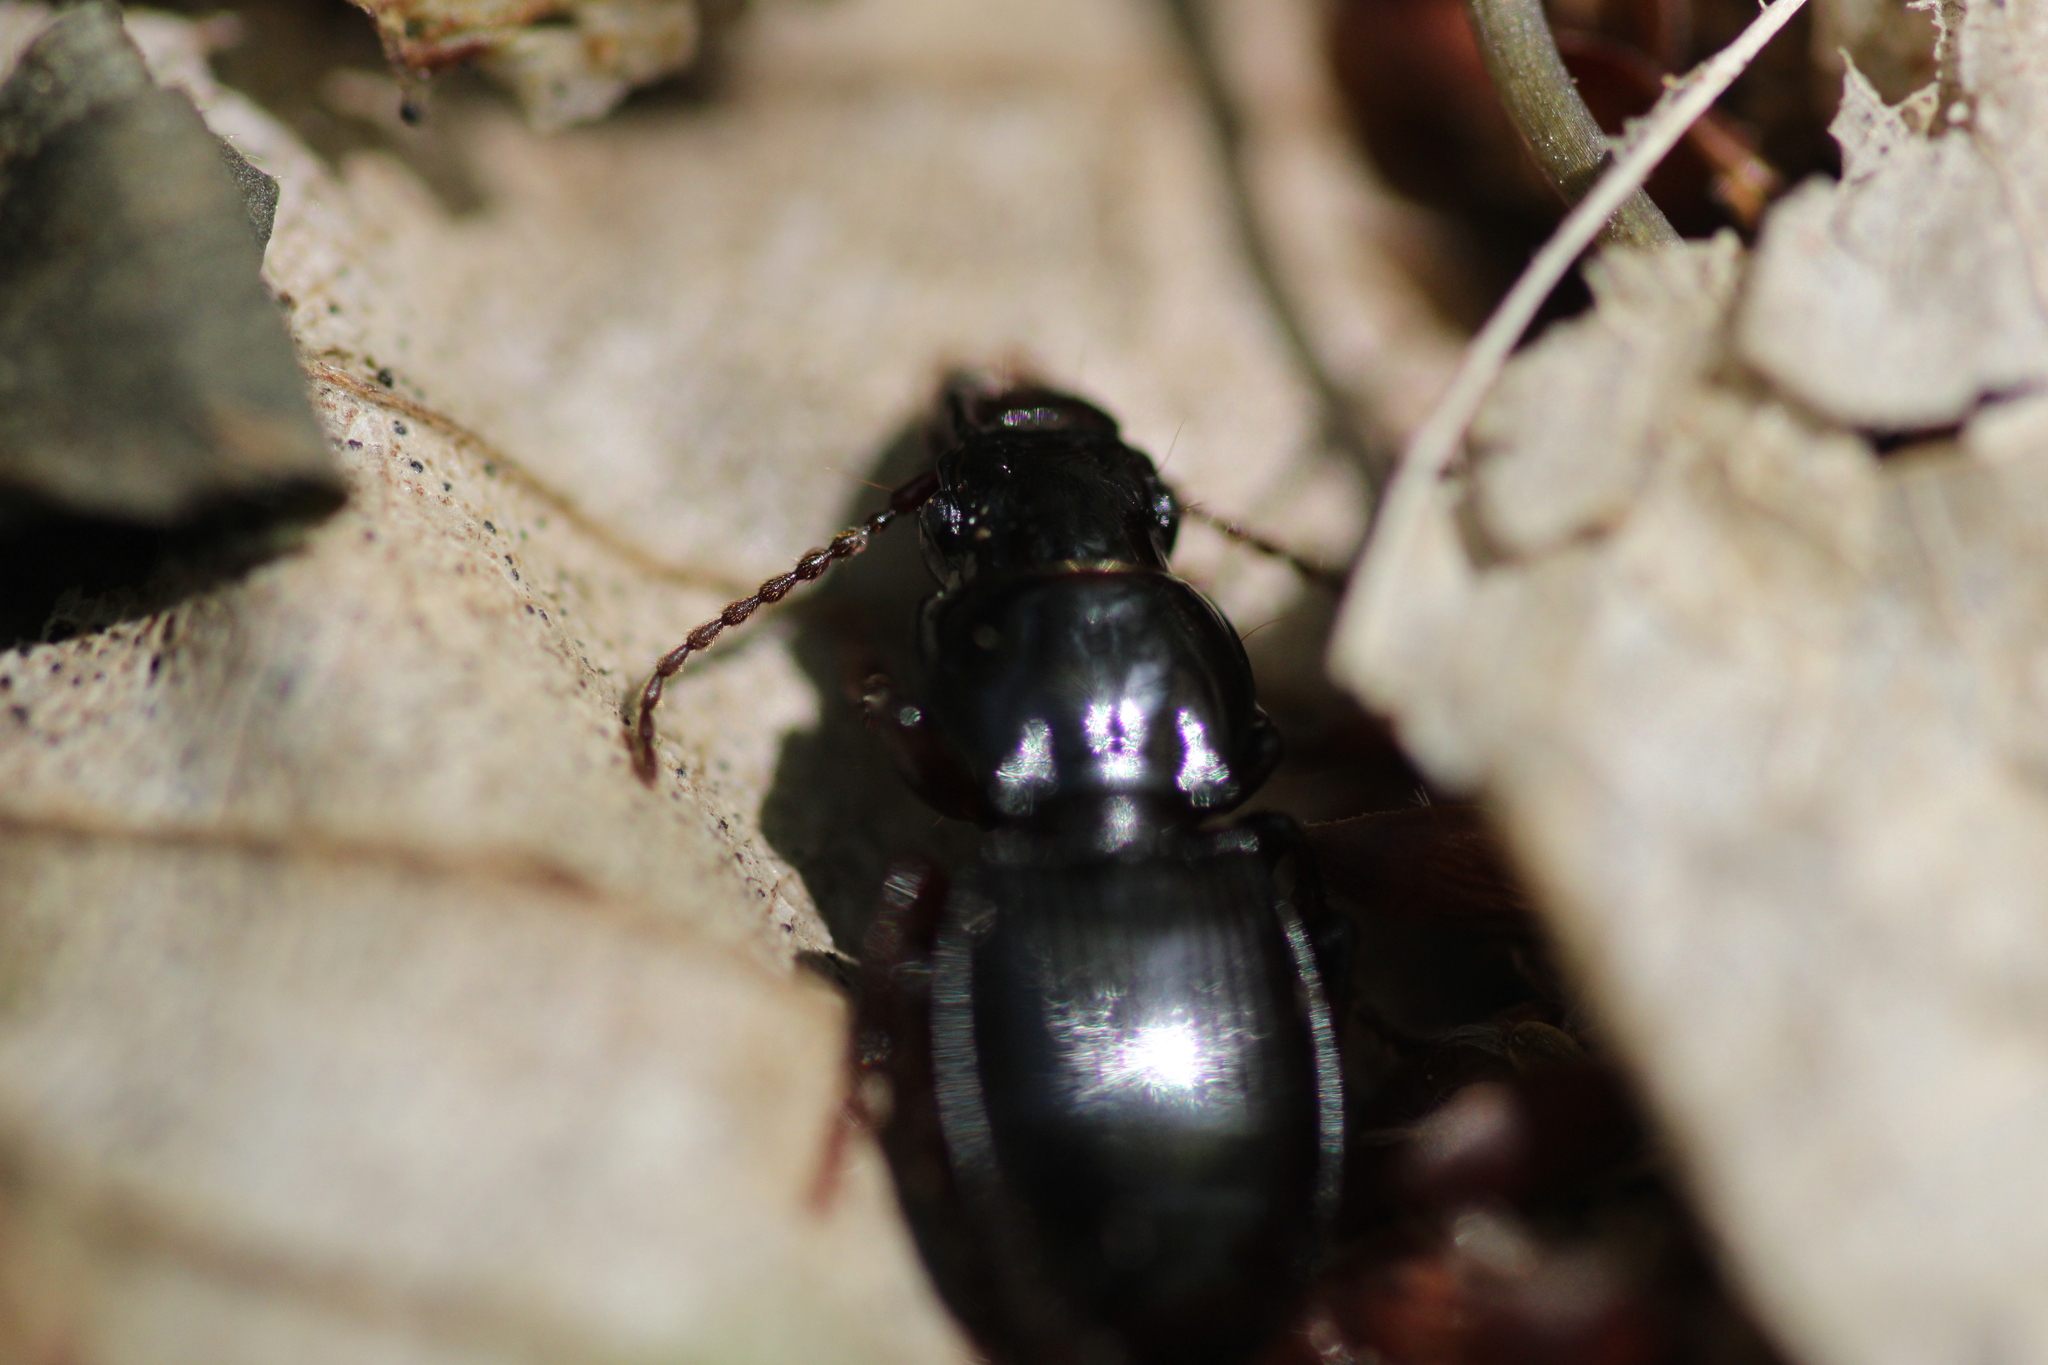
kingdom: Animalia
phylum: Arthropoda
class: Insecta
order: Coleoptera
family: Carabidae
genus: Molops
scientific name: Molops piceus
